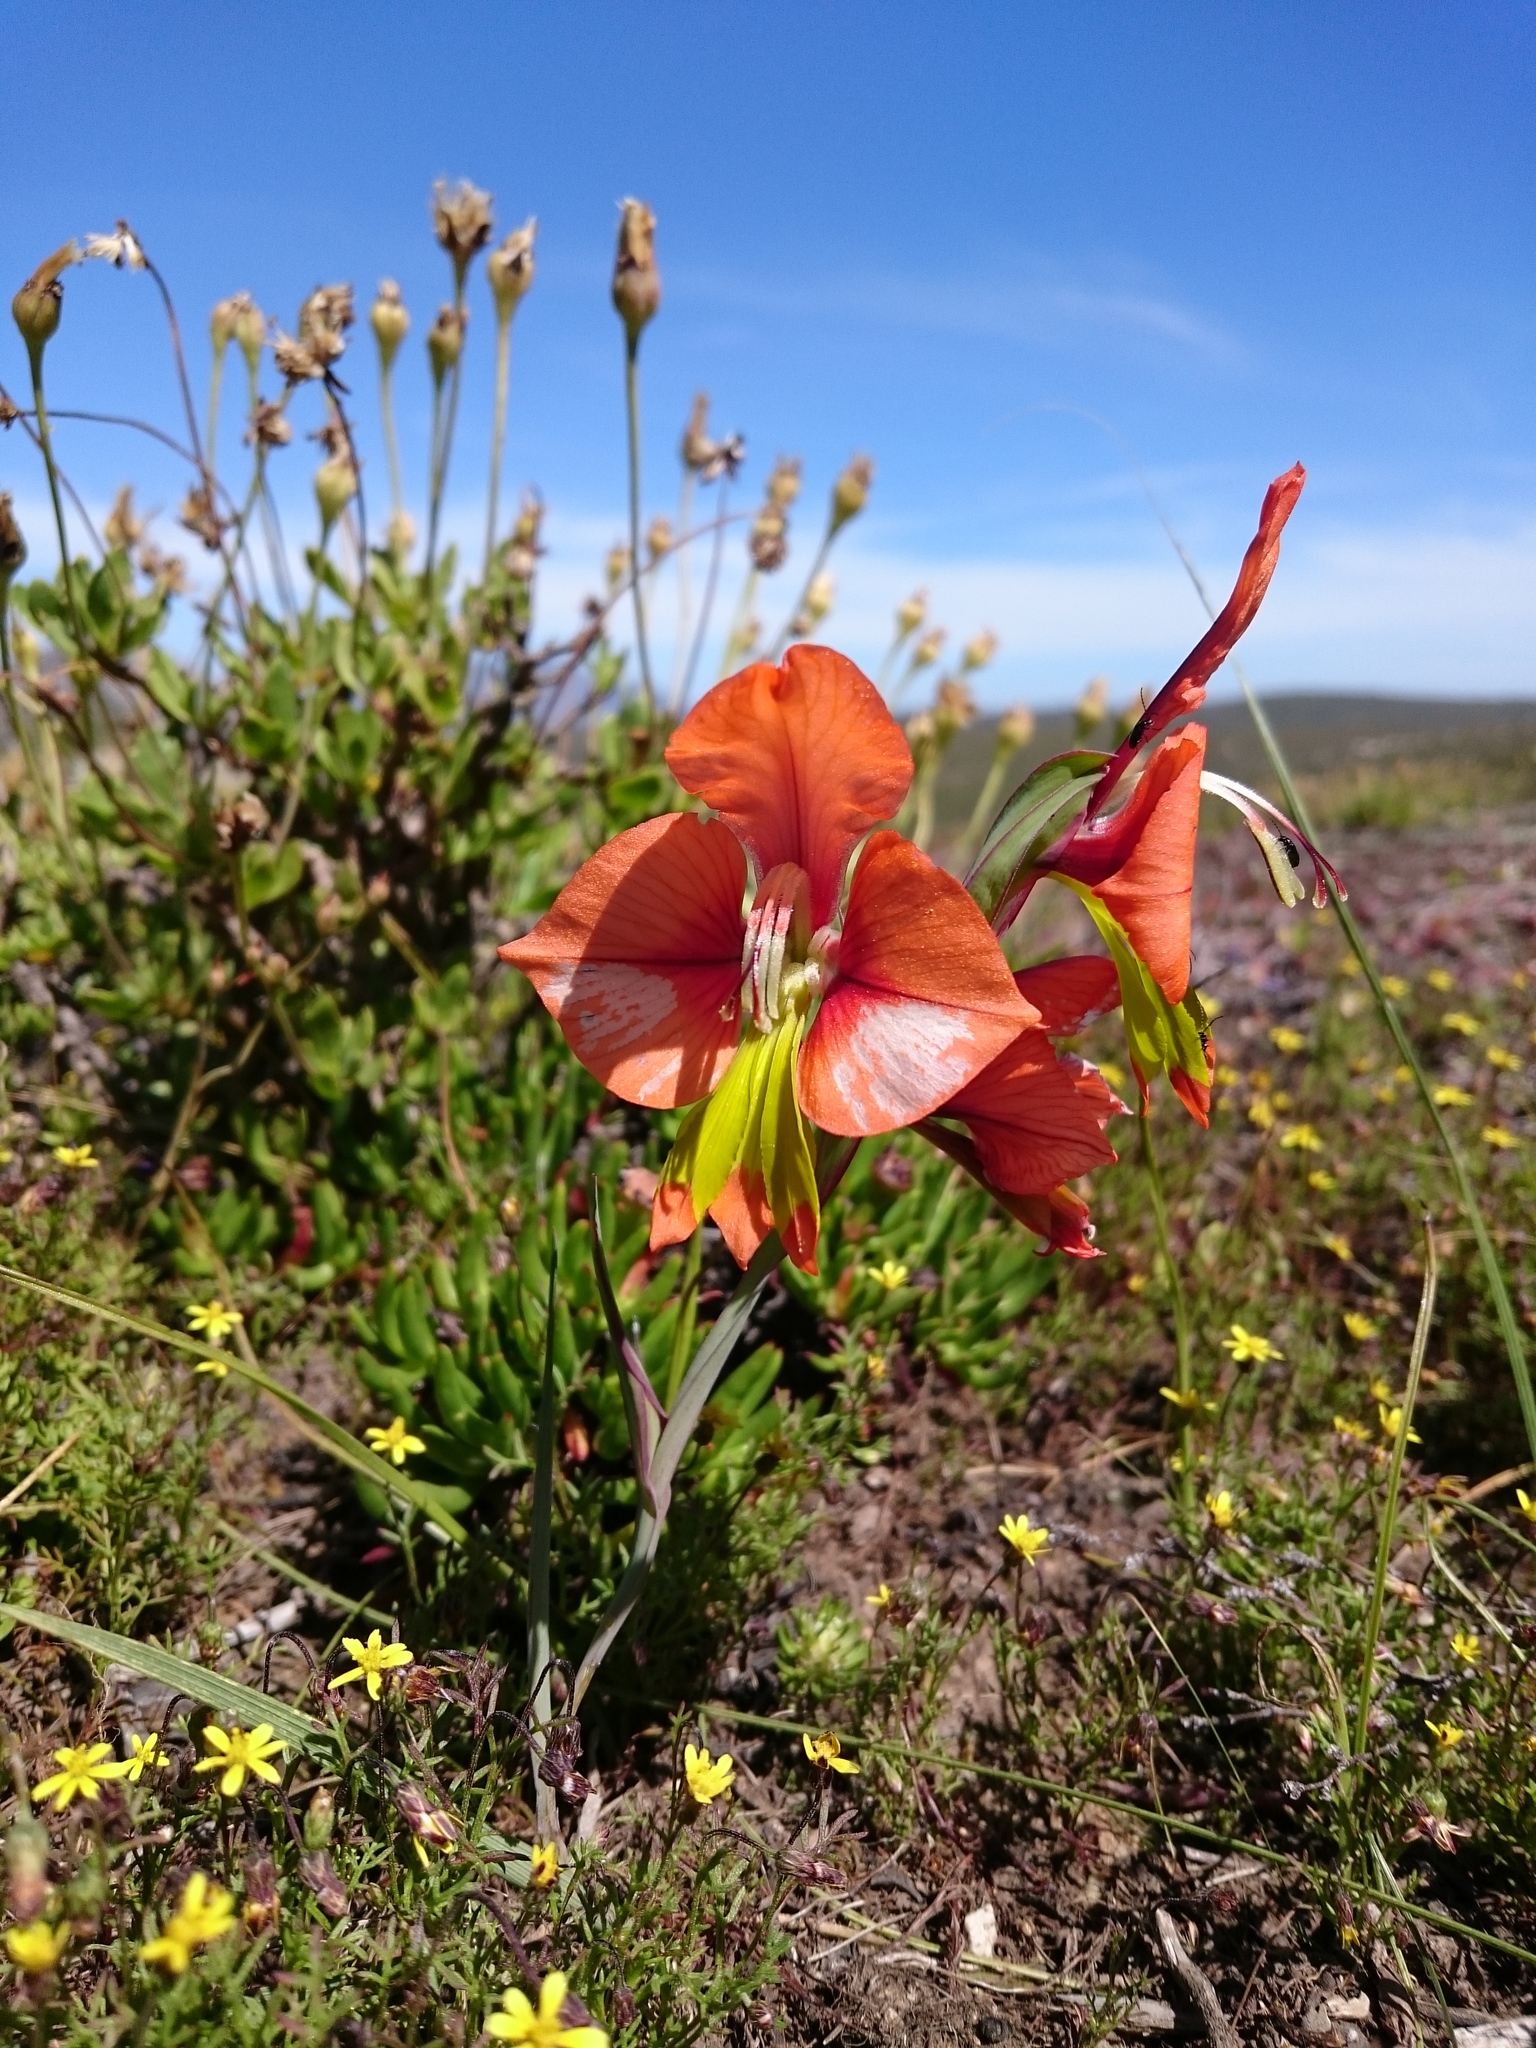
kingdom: Plantae
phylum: Tracheophyta
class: Liliopsida
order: Asparagales
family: Iridaceae
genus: Gladiolus
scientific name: Gladiolus alatus
